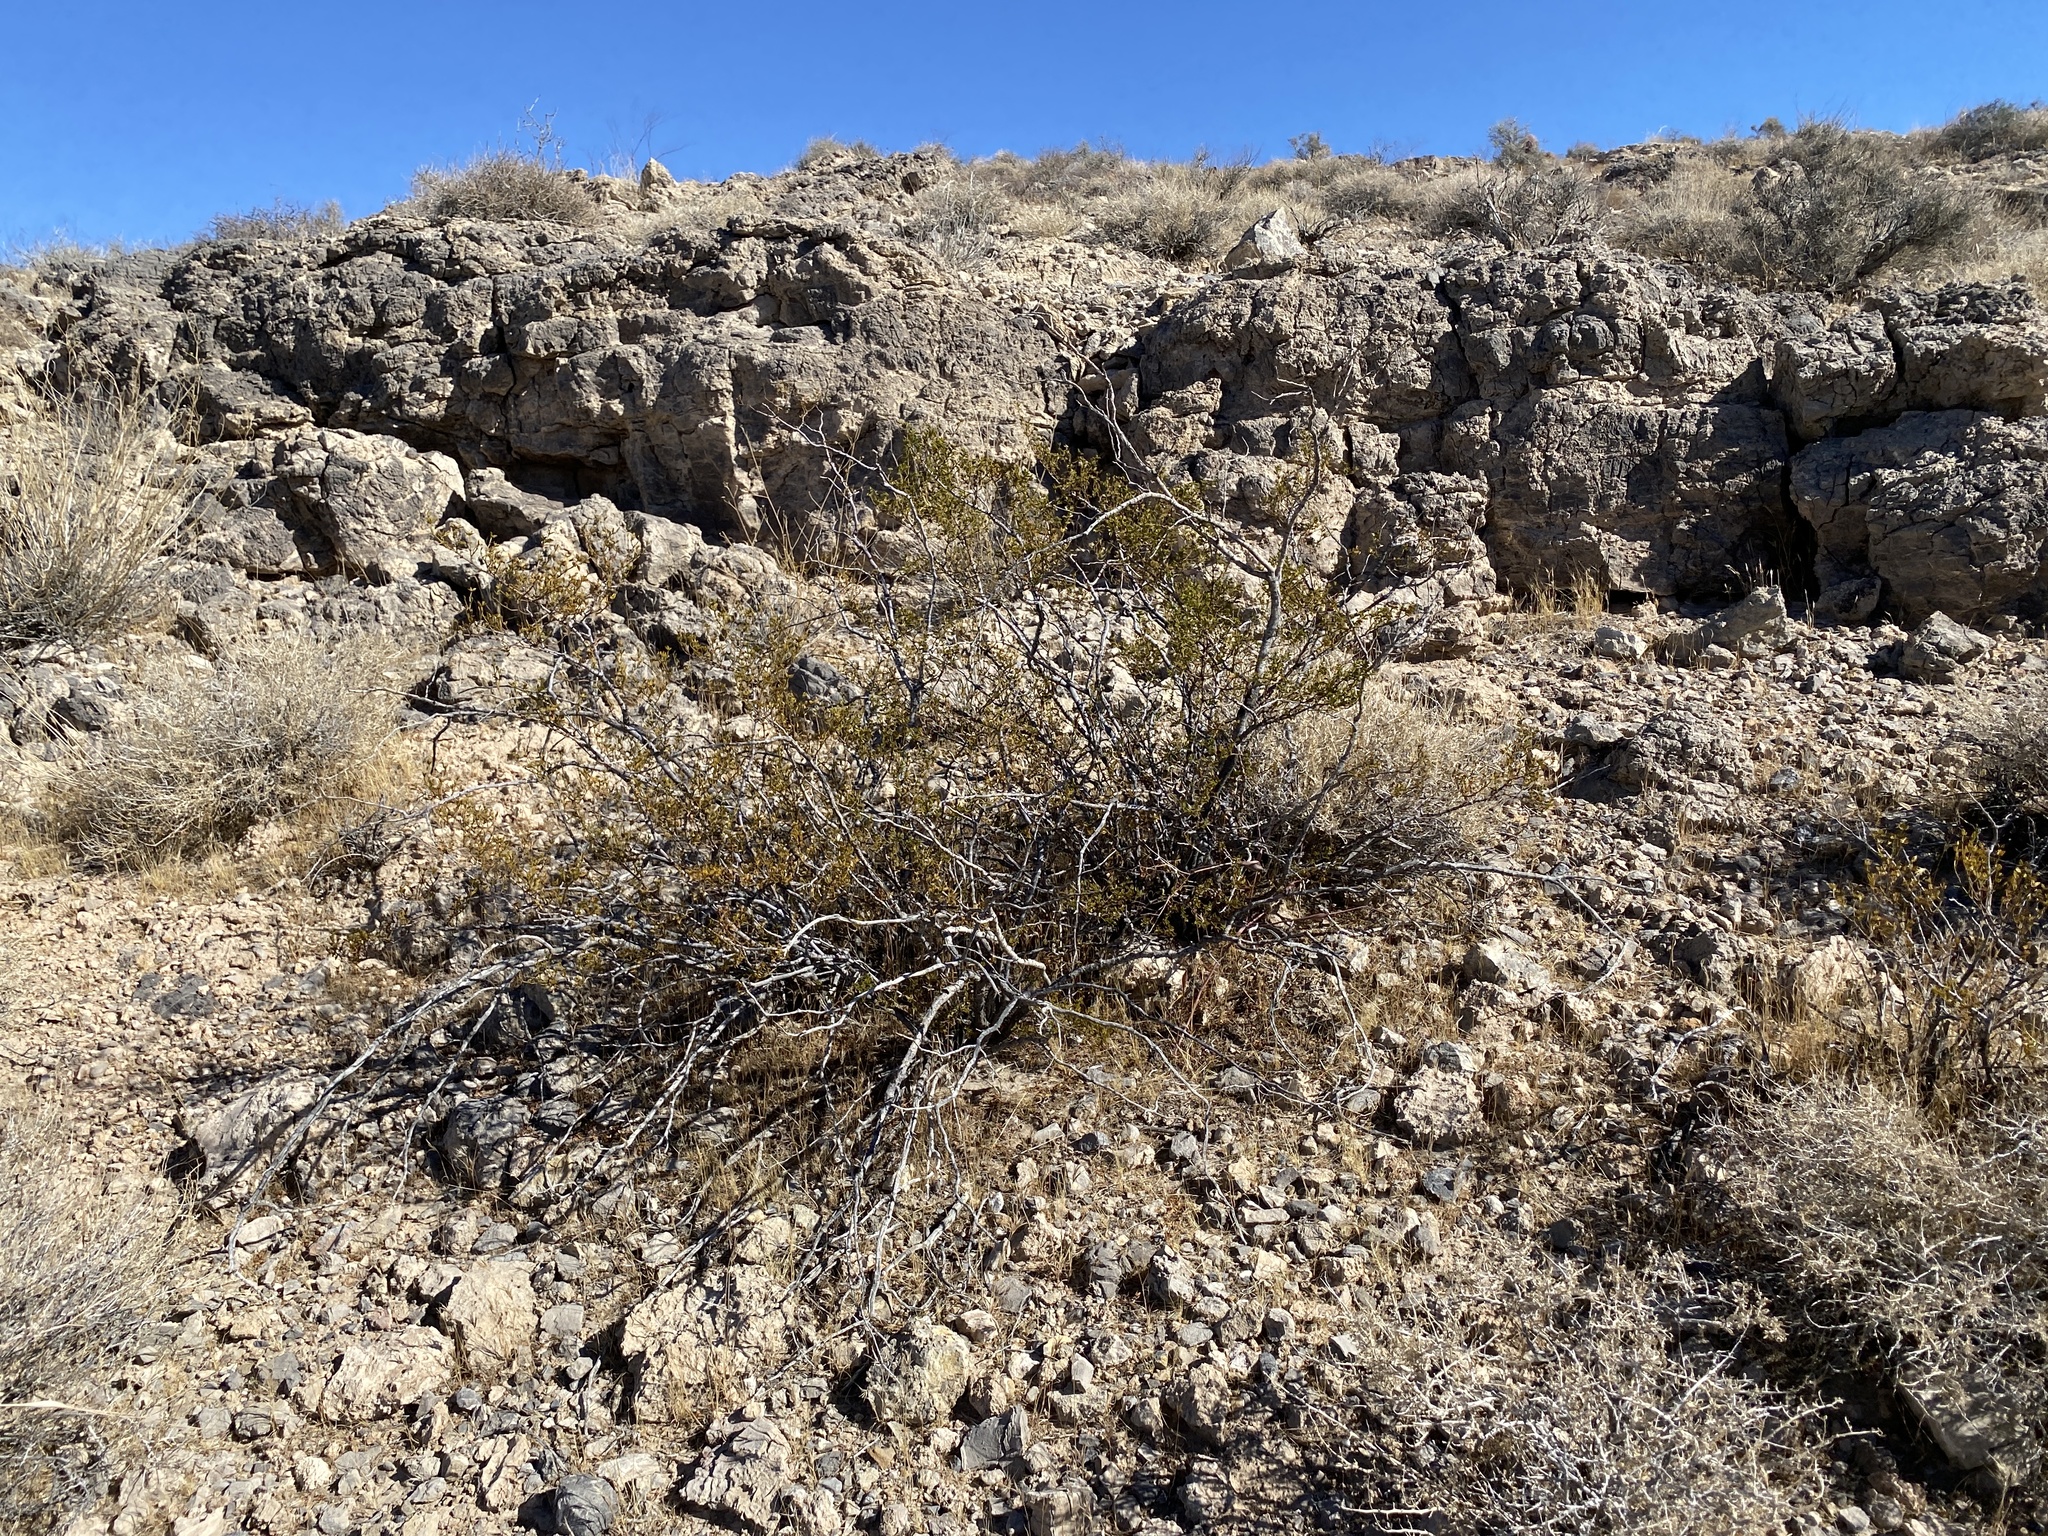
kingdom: Plantae
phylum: Tracheophyta
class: Magnoliopsida
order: Zygophyllales
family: Zygophyllaceae
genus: Larrea
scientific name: Larrea tridentata
